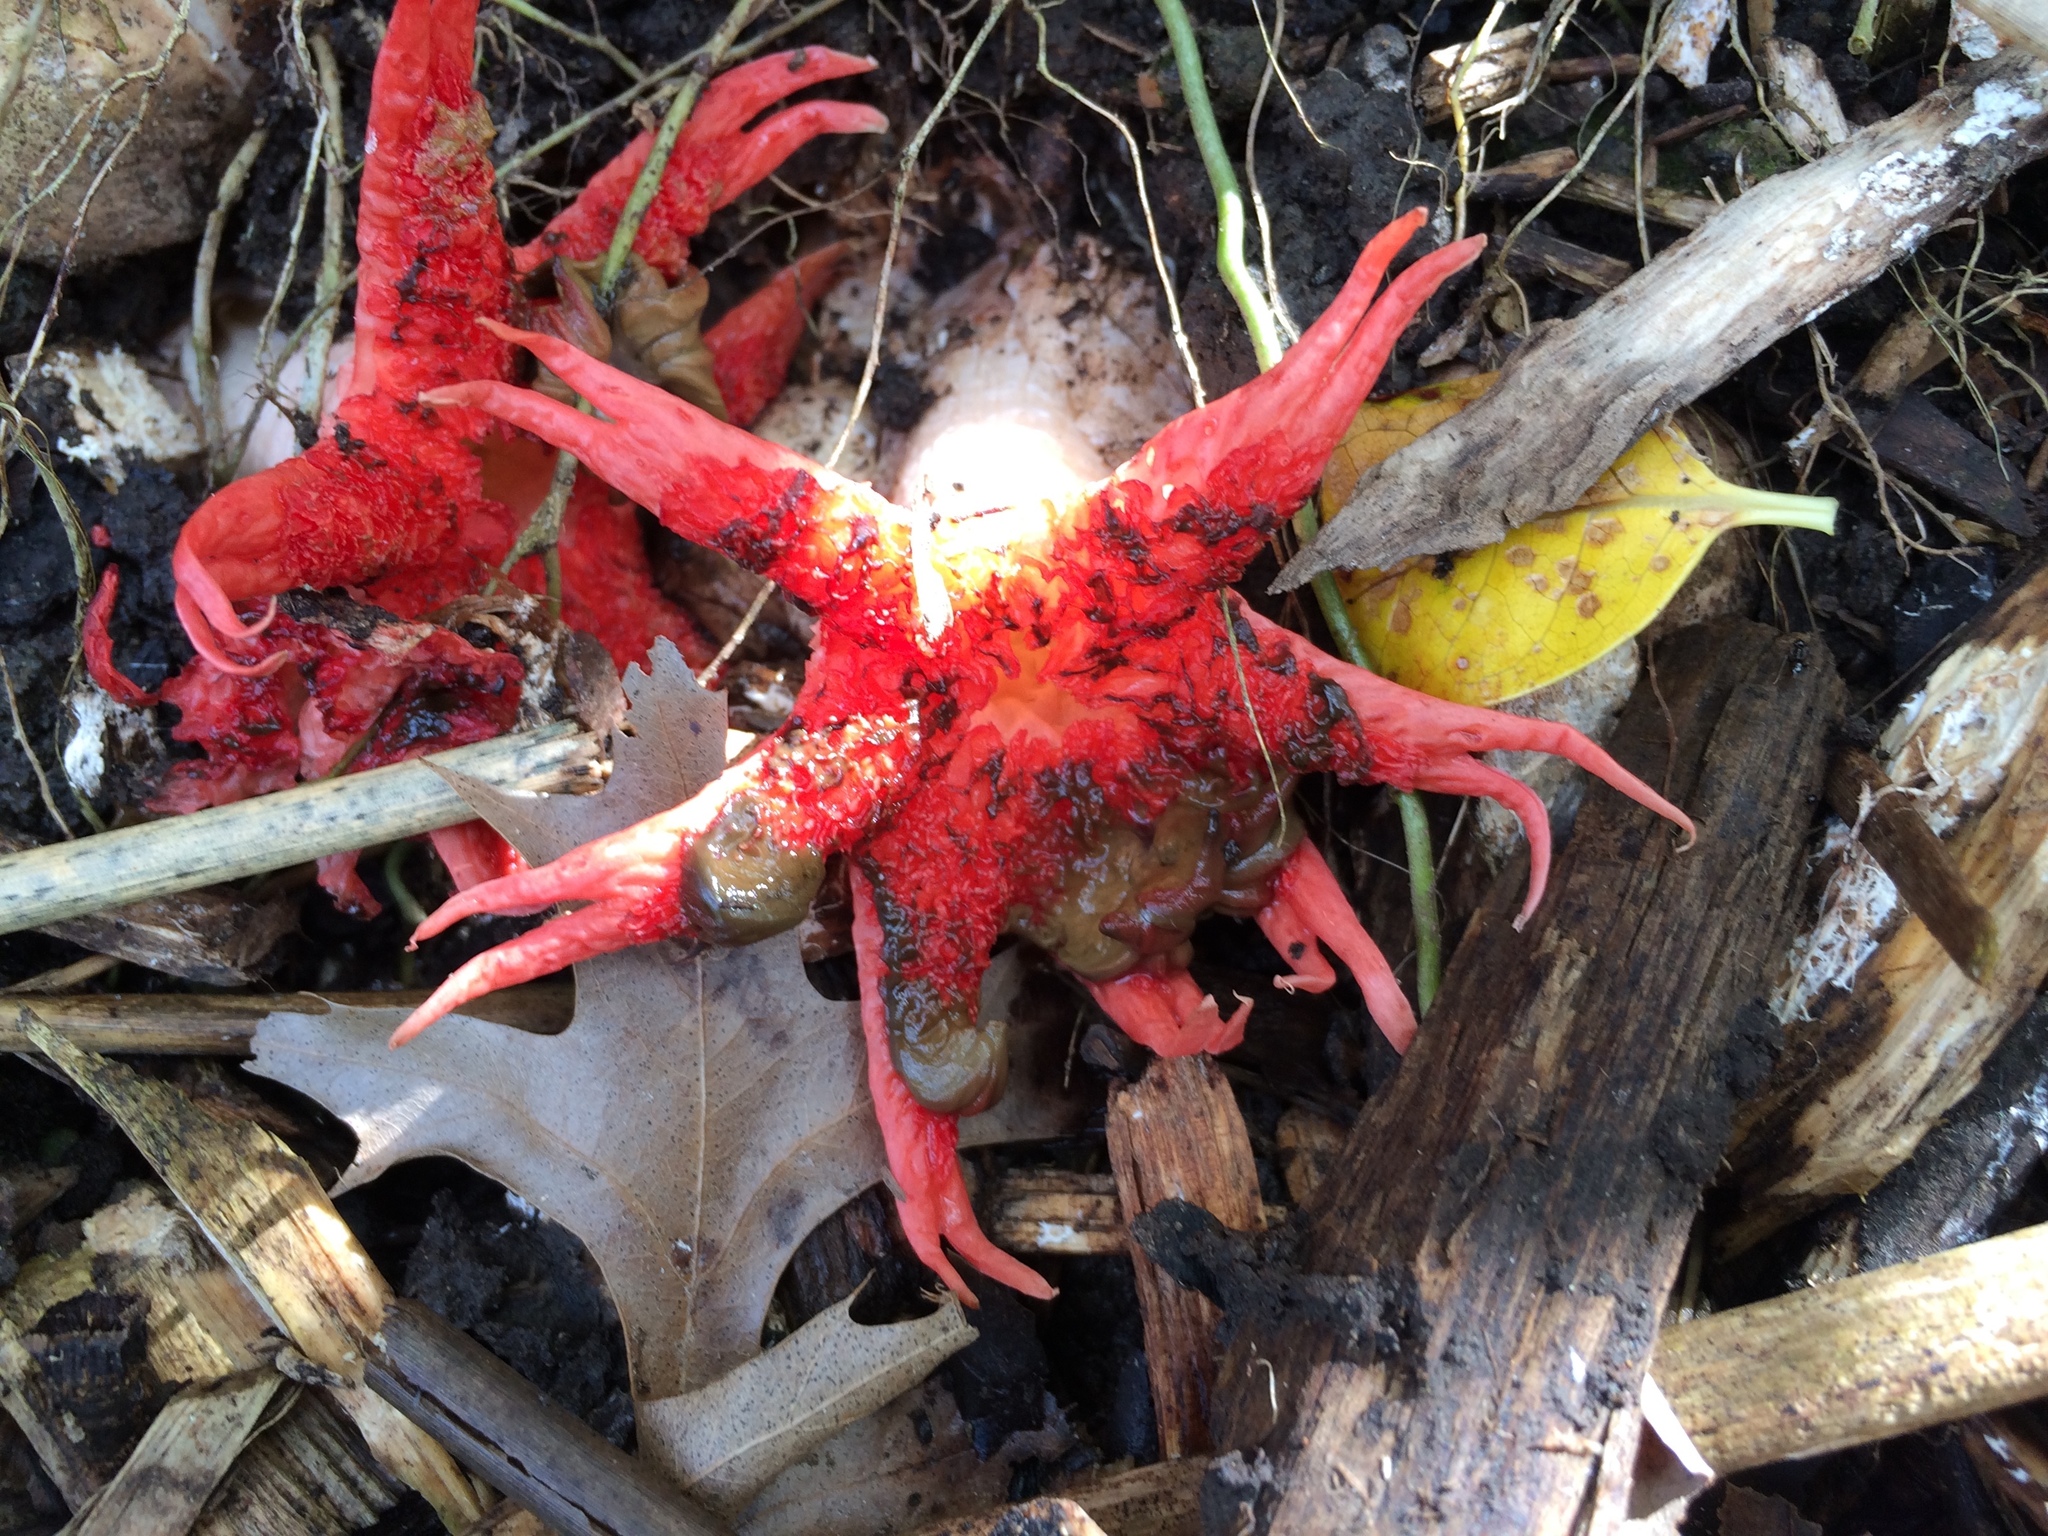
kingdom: Fungi
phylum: Basidiomycota
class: Agaricomycetes
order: Phallales
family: Phallaceae
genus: Aseroe
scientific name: Aseroe rubra
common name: Starfish fungus
